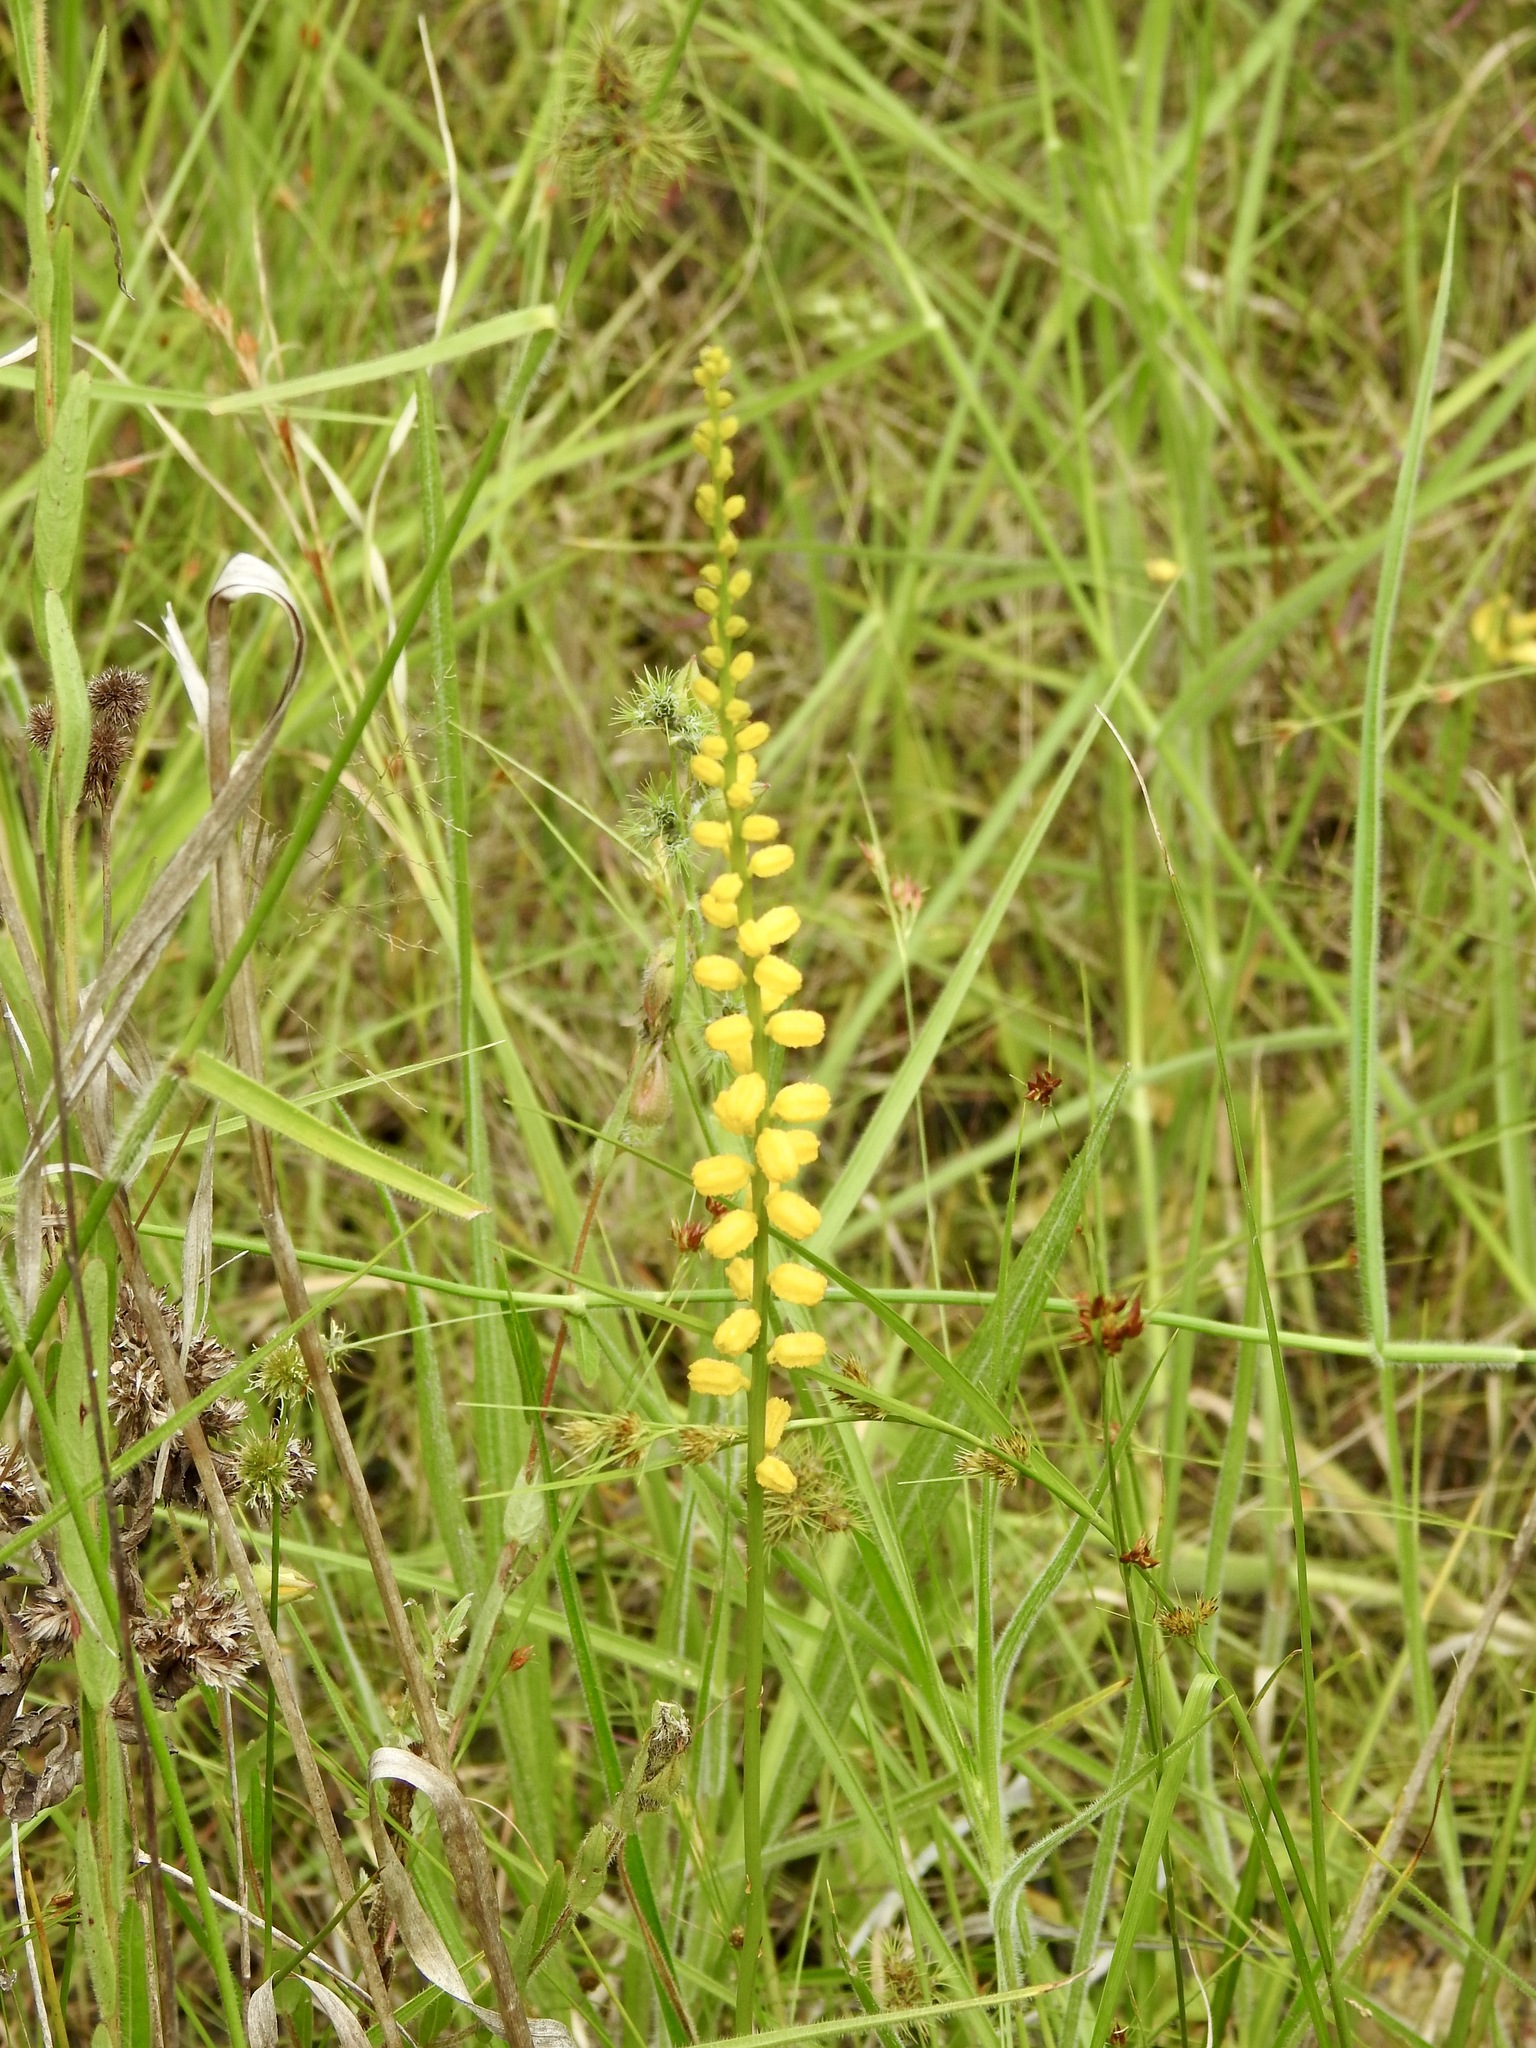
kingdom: Plantae
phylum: Tracheophyta
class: Liliopsida
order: Dioscoreales
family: Nartheciaceae
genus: Aletris
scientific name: Aletris aurea
